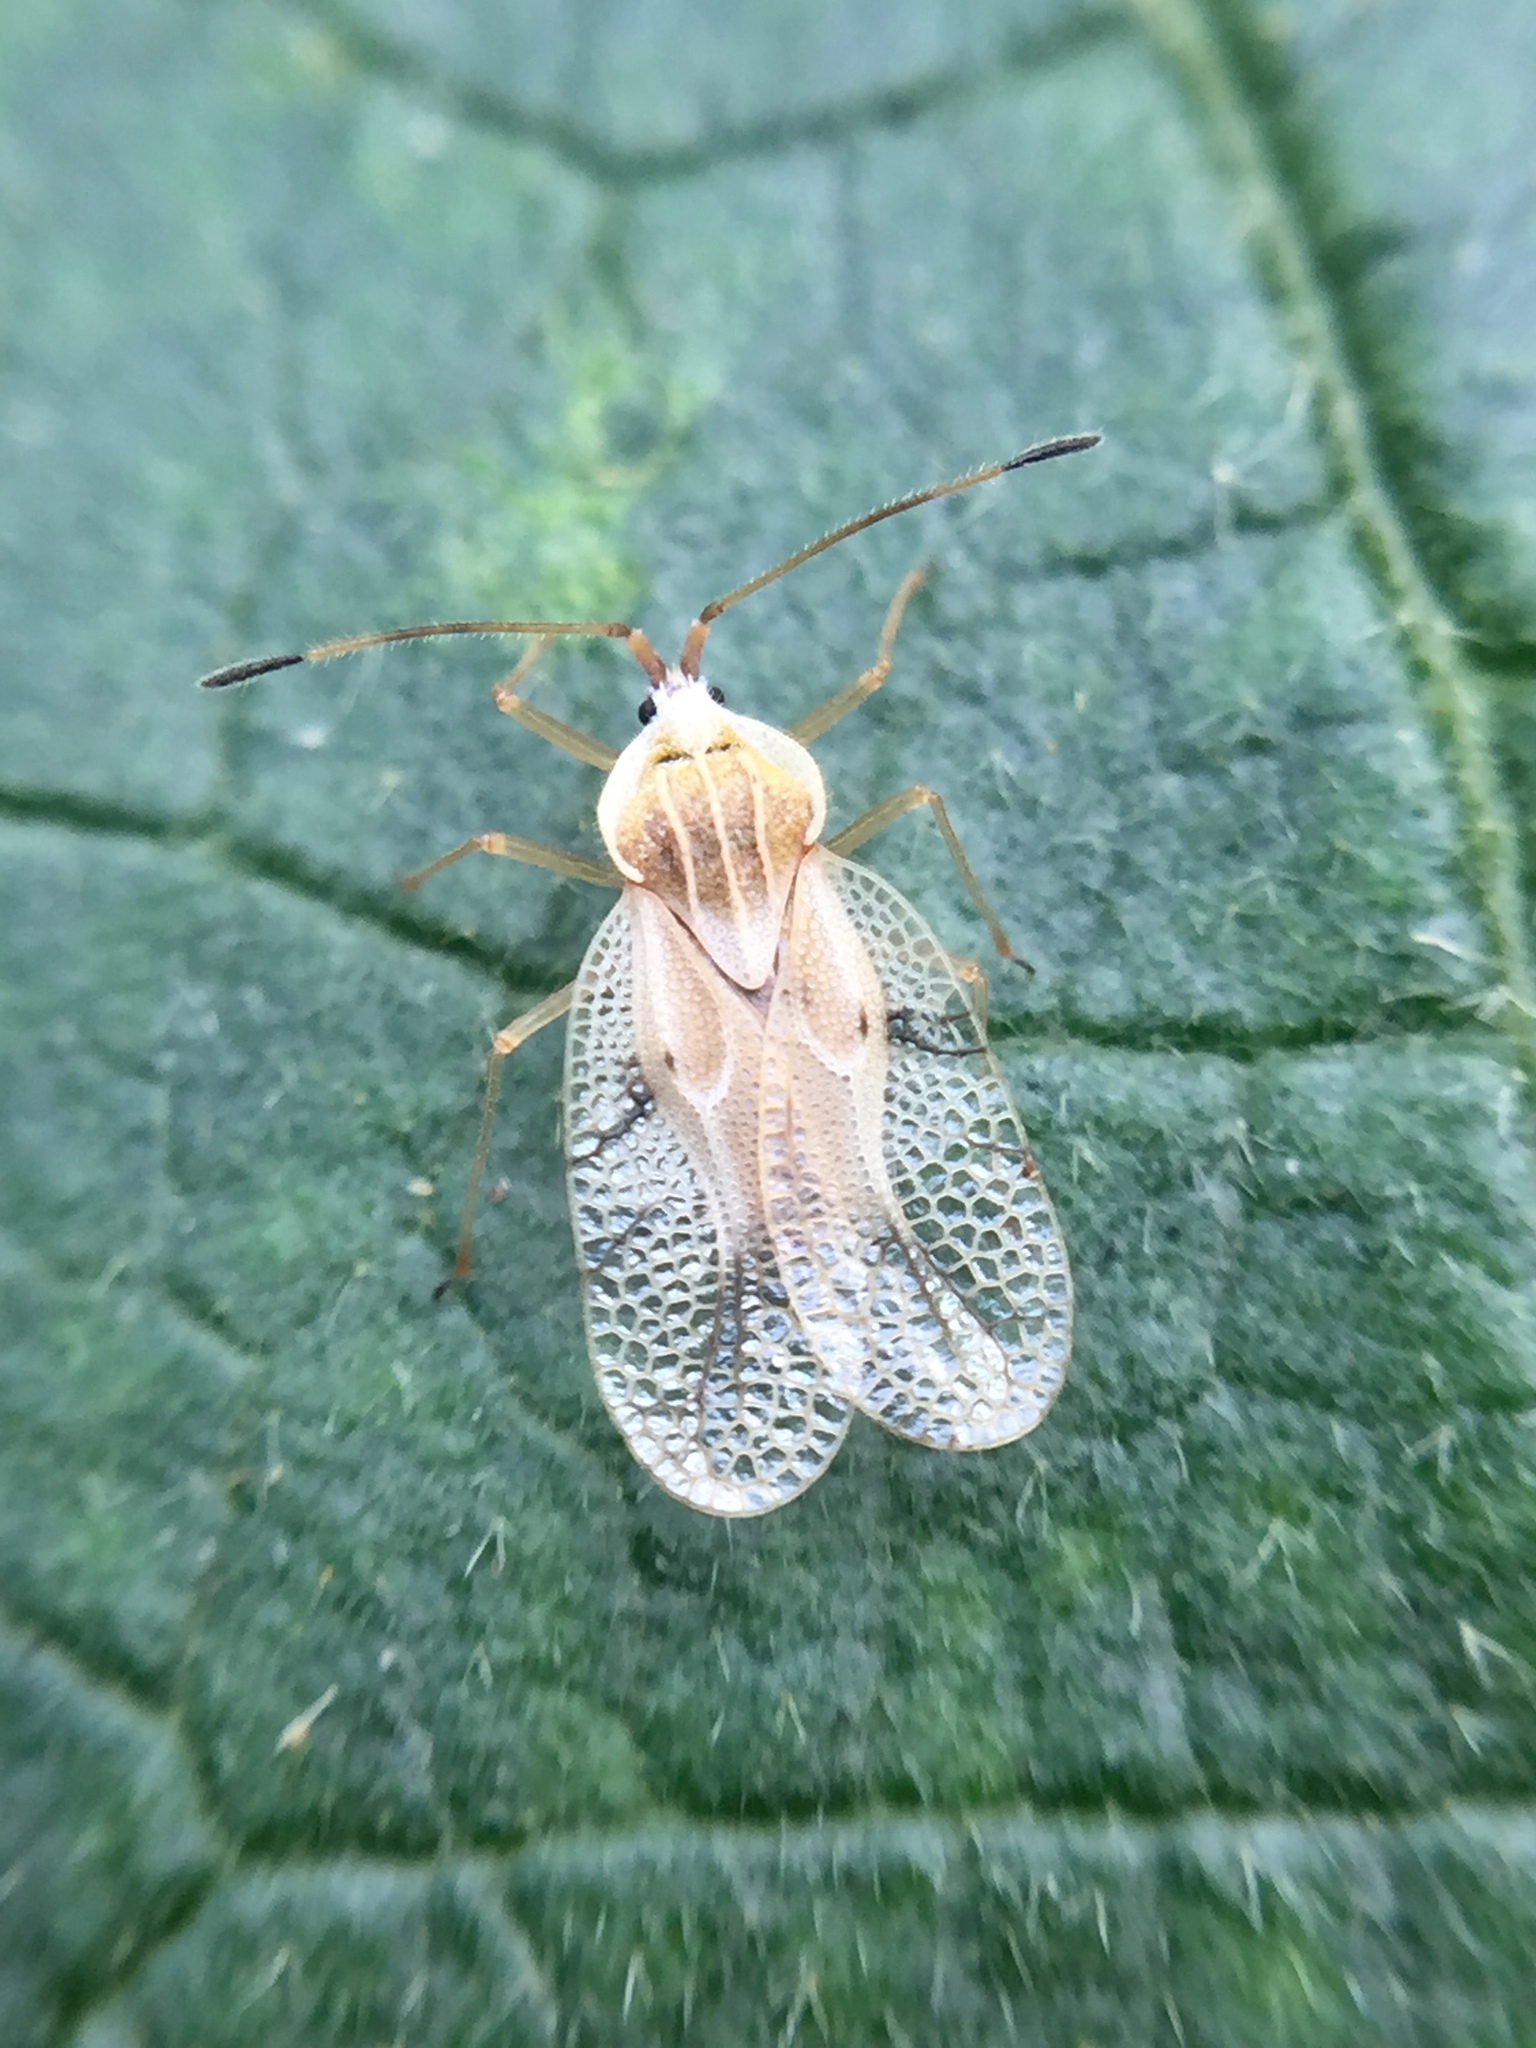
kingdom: Animalia
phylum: Arthropoda
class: Insecta
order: Hemiptera
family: Tingidae
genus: Gargaphia
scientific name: Gargaphia decoris
